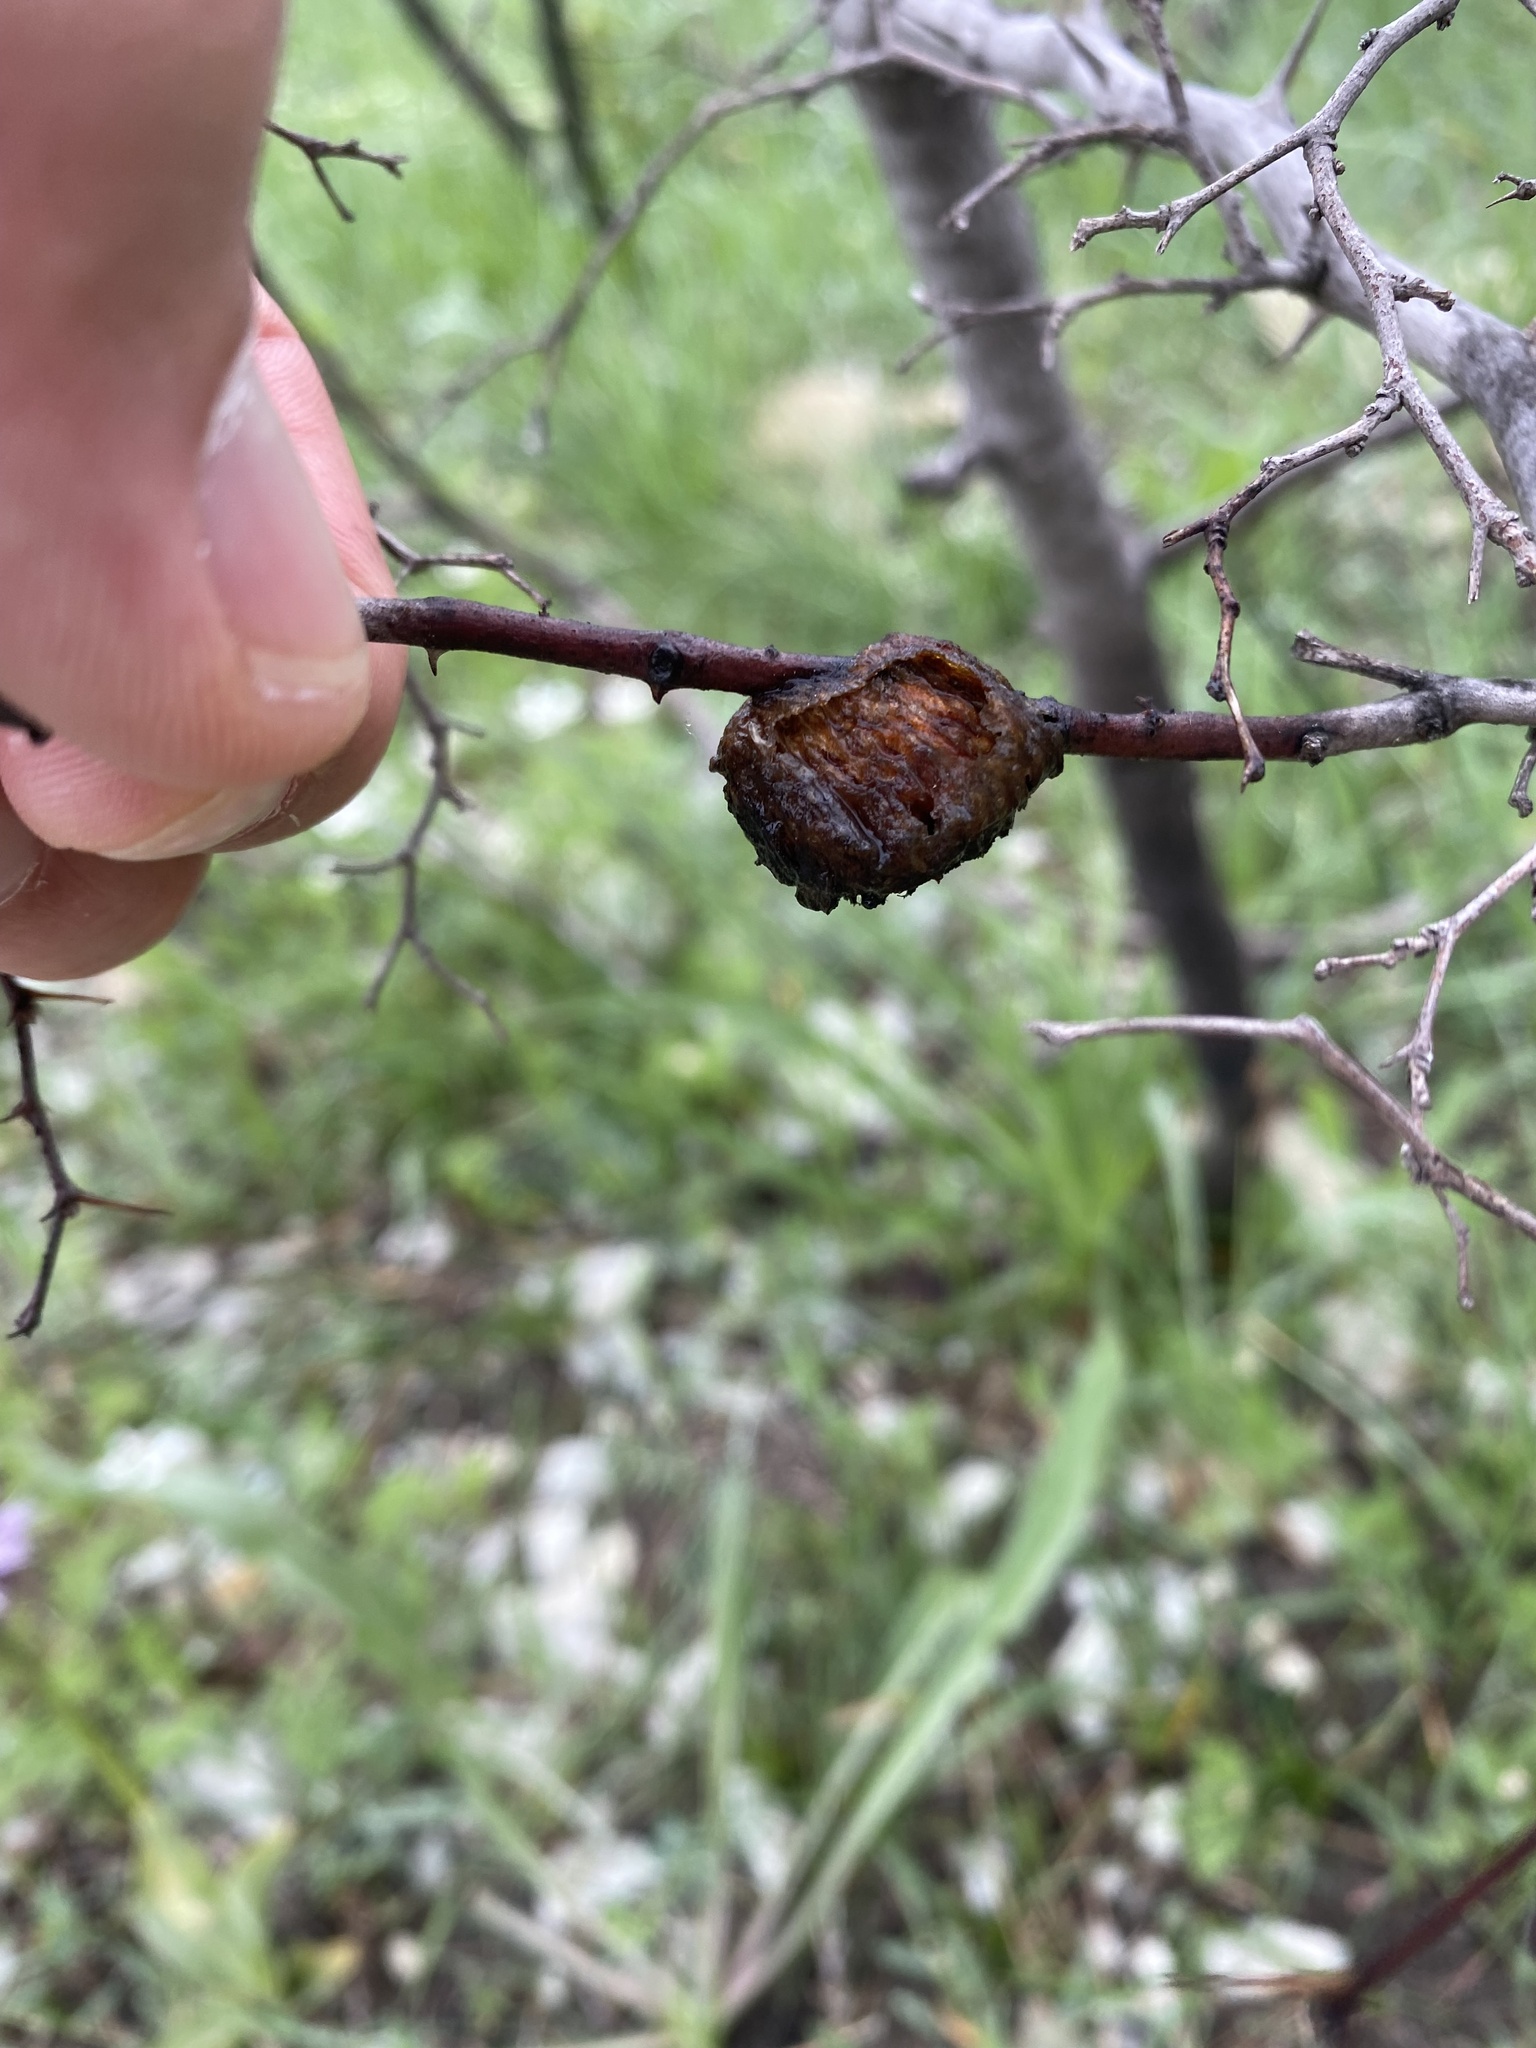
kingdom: Animalia
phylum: Arthropoda
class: Insecta
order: Mantodea
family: Mantidae
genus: Hierodula
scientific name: Hierodula transcaucasica
